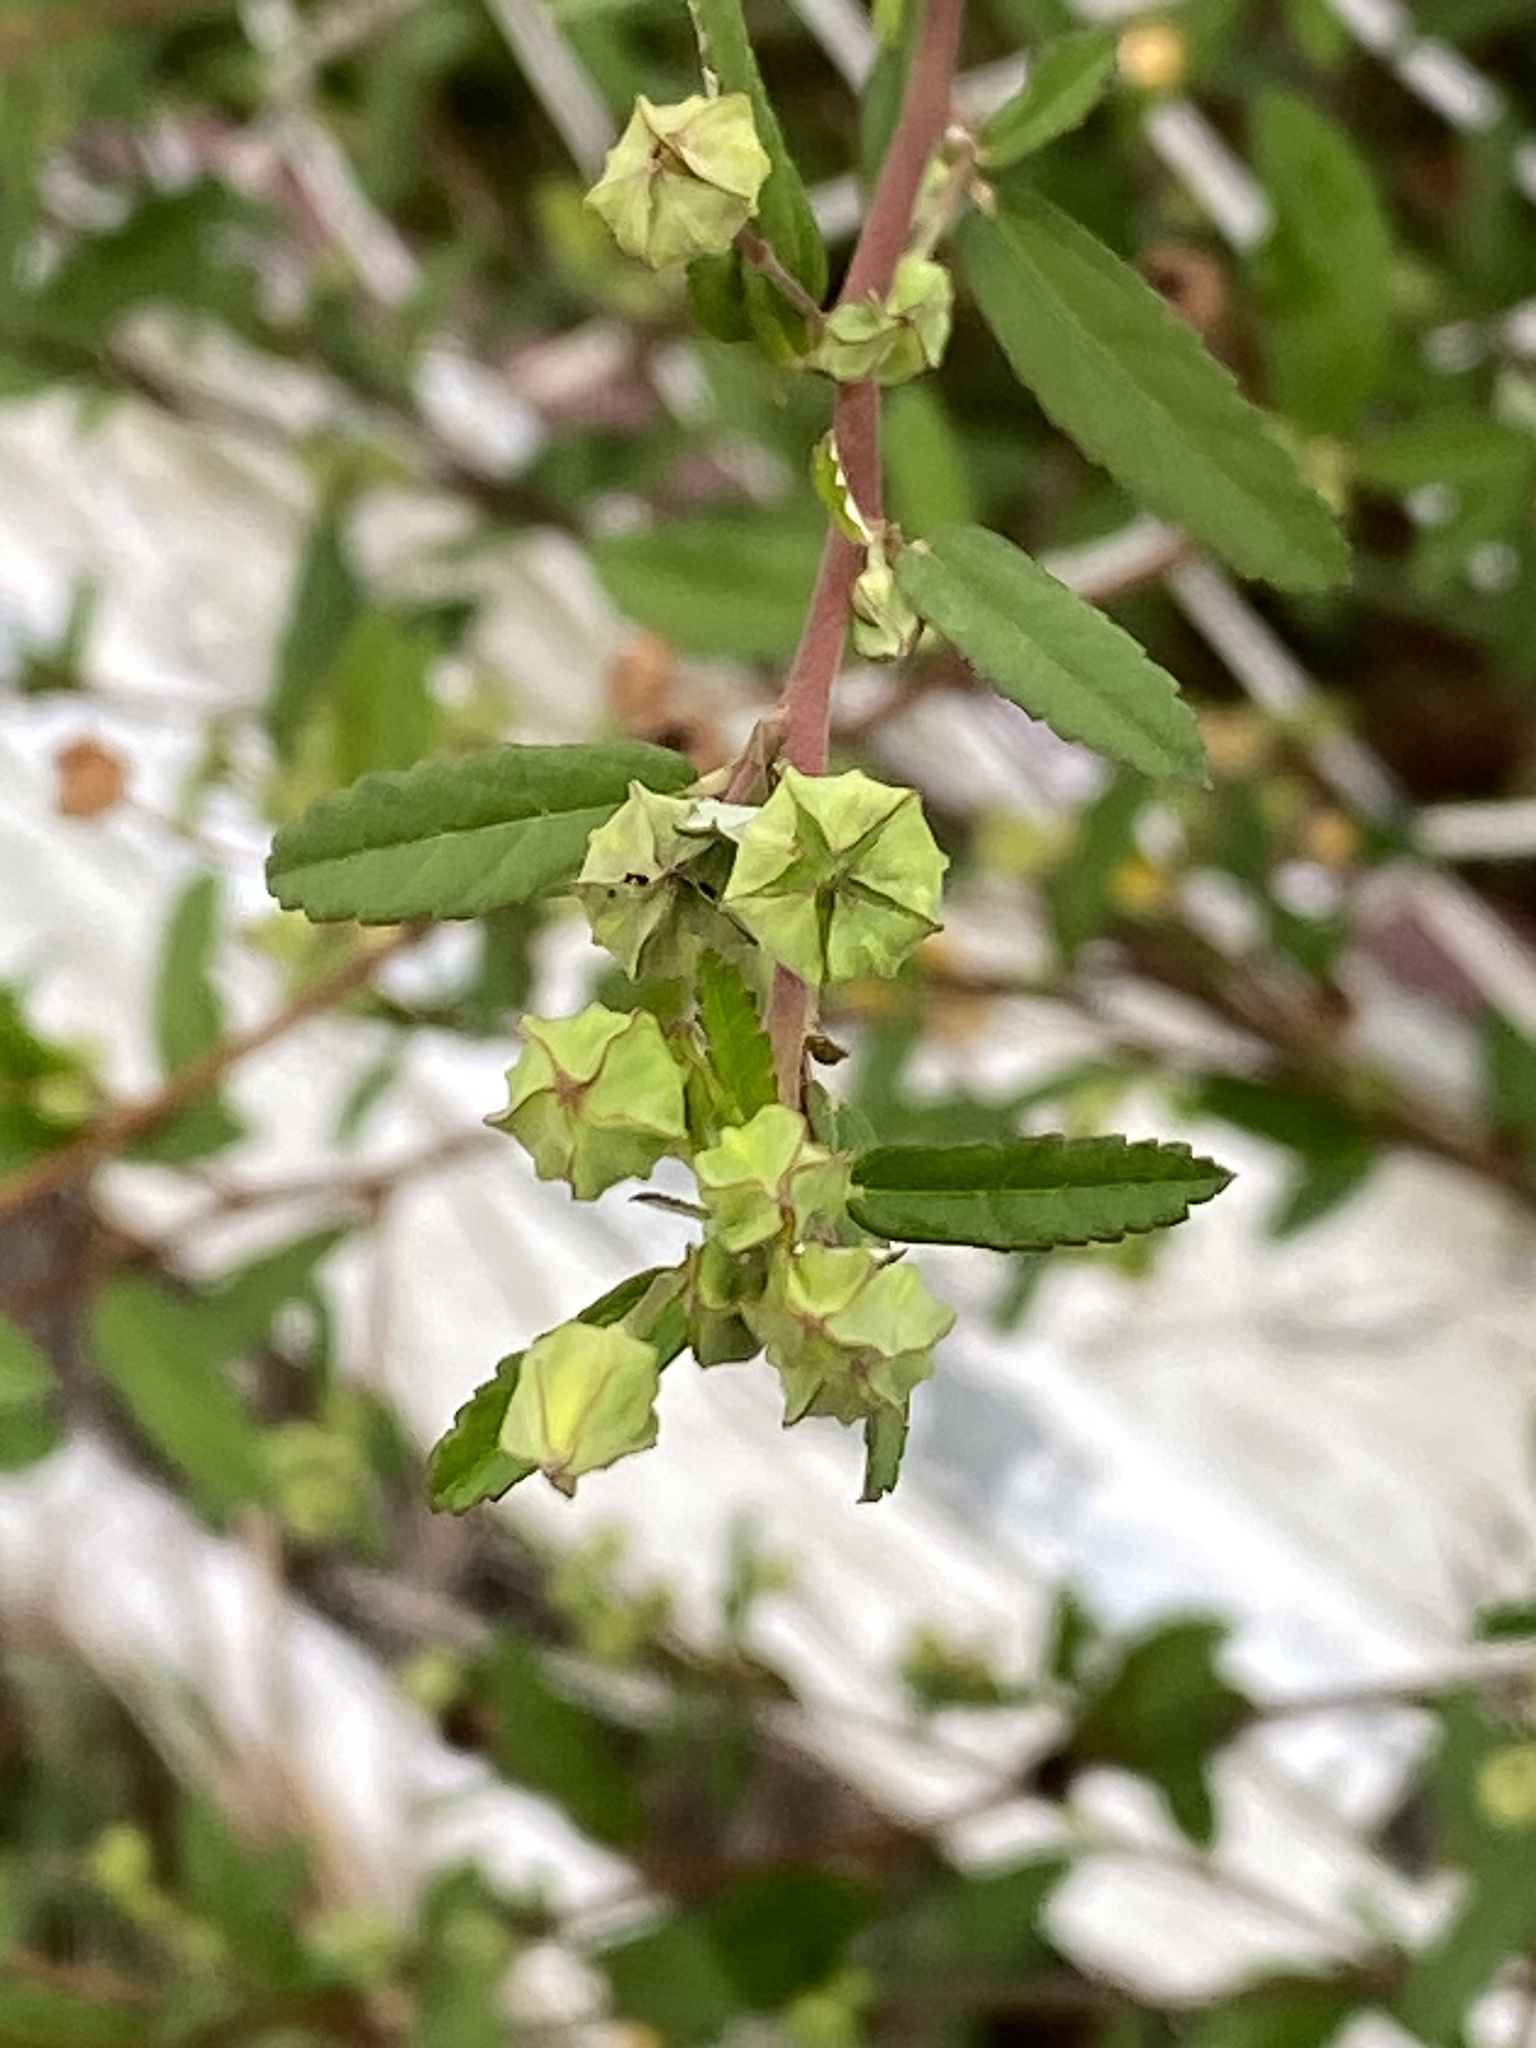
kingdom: Plantae
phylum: Tracheophyta
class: Magnoliopsida
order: Malvales
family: Malvaceae
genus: Pavonia
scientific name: Pavonia hastata
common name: Spearleaf swampmallow
